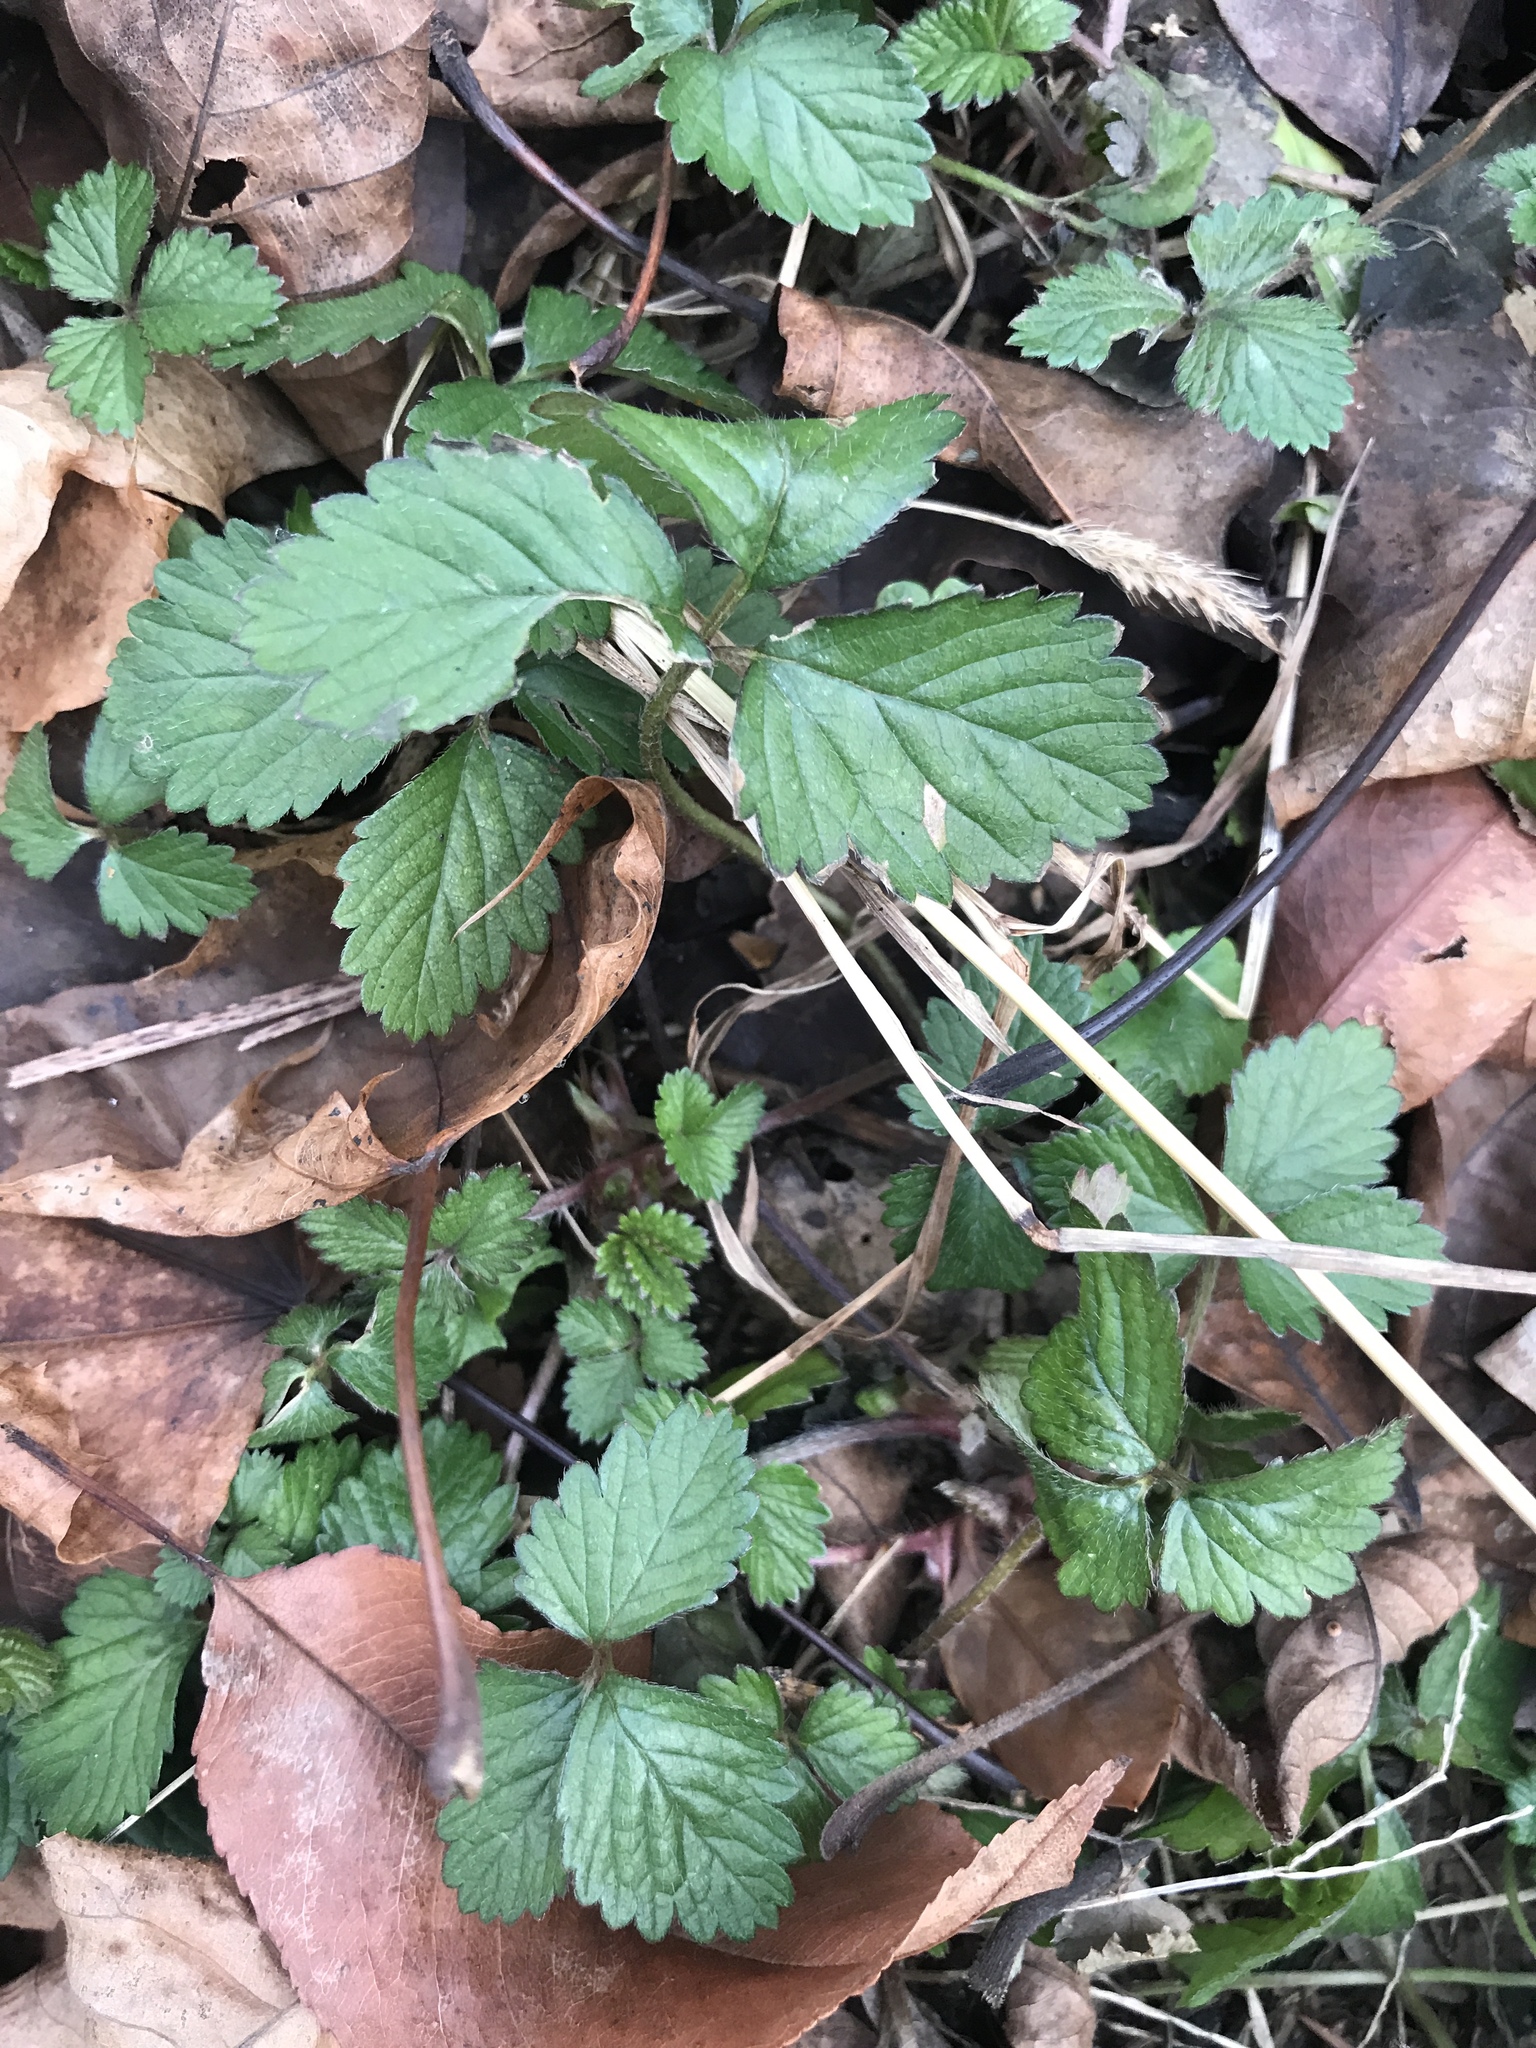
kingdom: Plantae
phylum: Tracheophyta
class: Magnoliopsida
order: Rosales
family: Rosaceae
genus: Potentilla
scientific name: Potentilla indica
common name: Yellow-flowered strawberry
